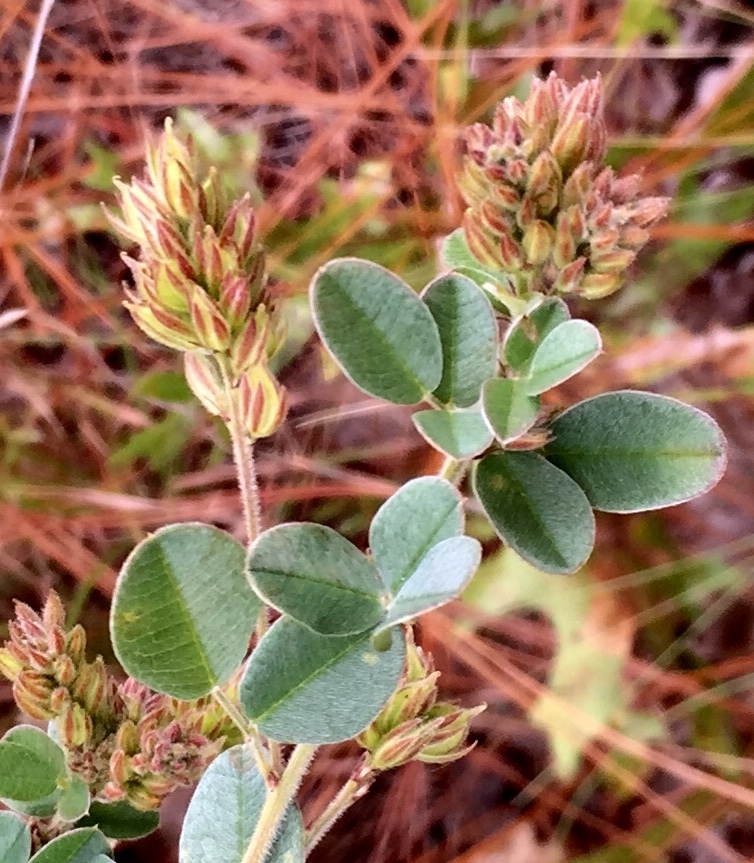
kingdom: Plantae
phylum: Tracheophyta
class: Magnoliopsida
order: Fabales
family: Fabaceae
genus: Lespedeza
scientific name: Lespedeza hirta
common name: Hairy lespedeza
